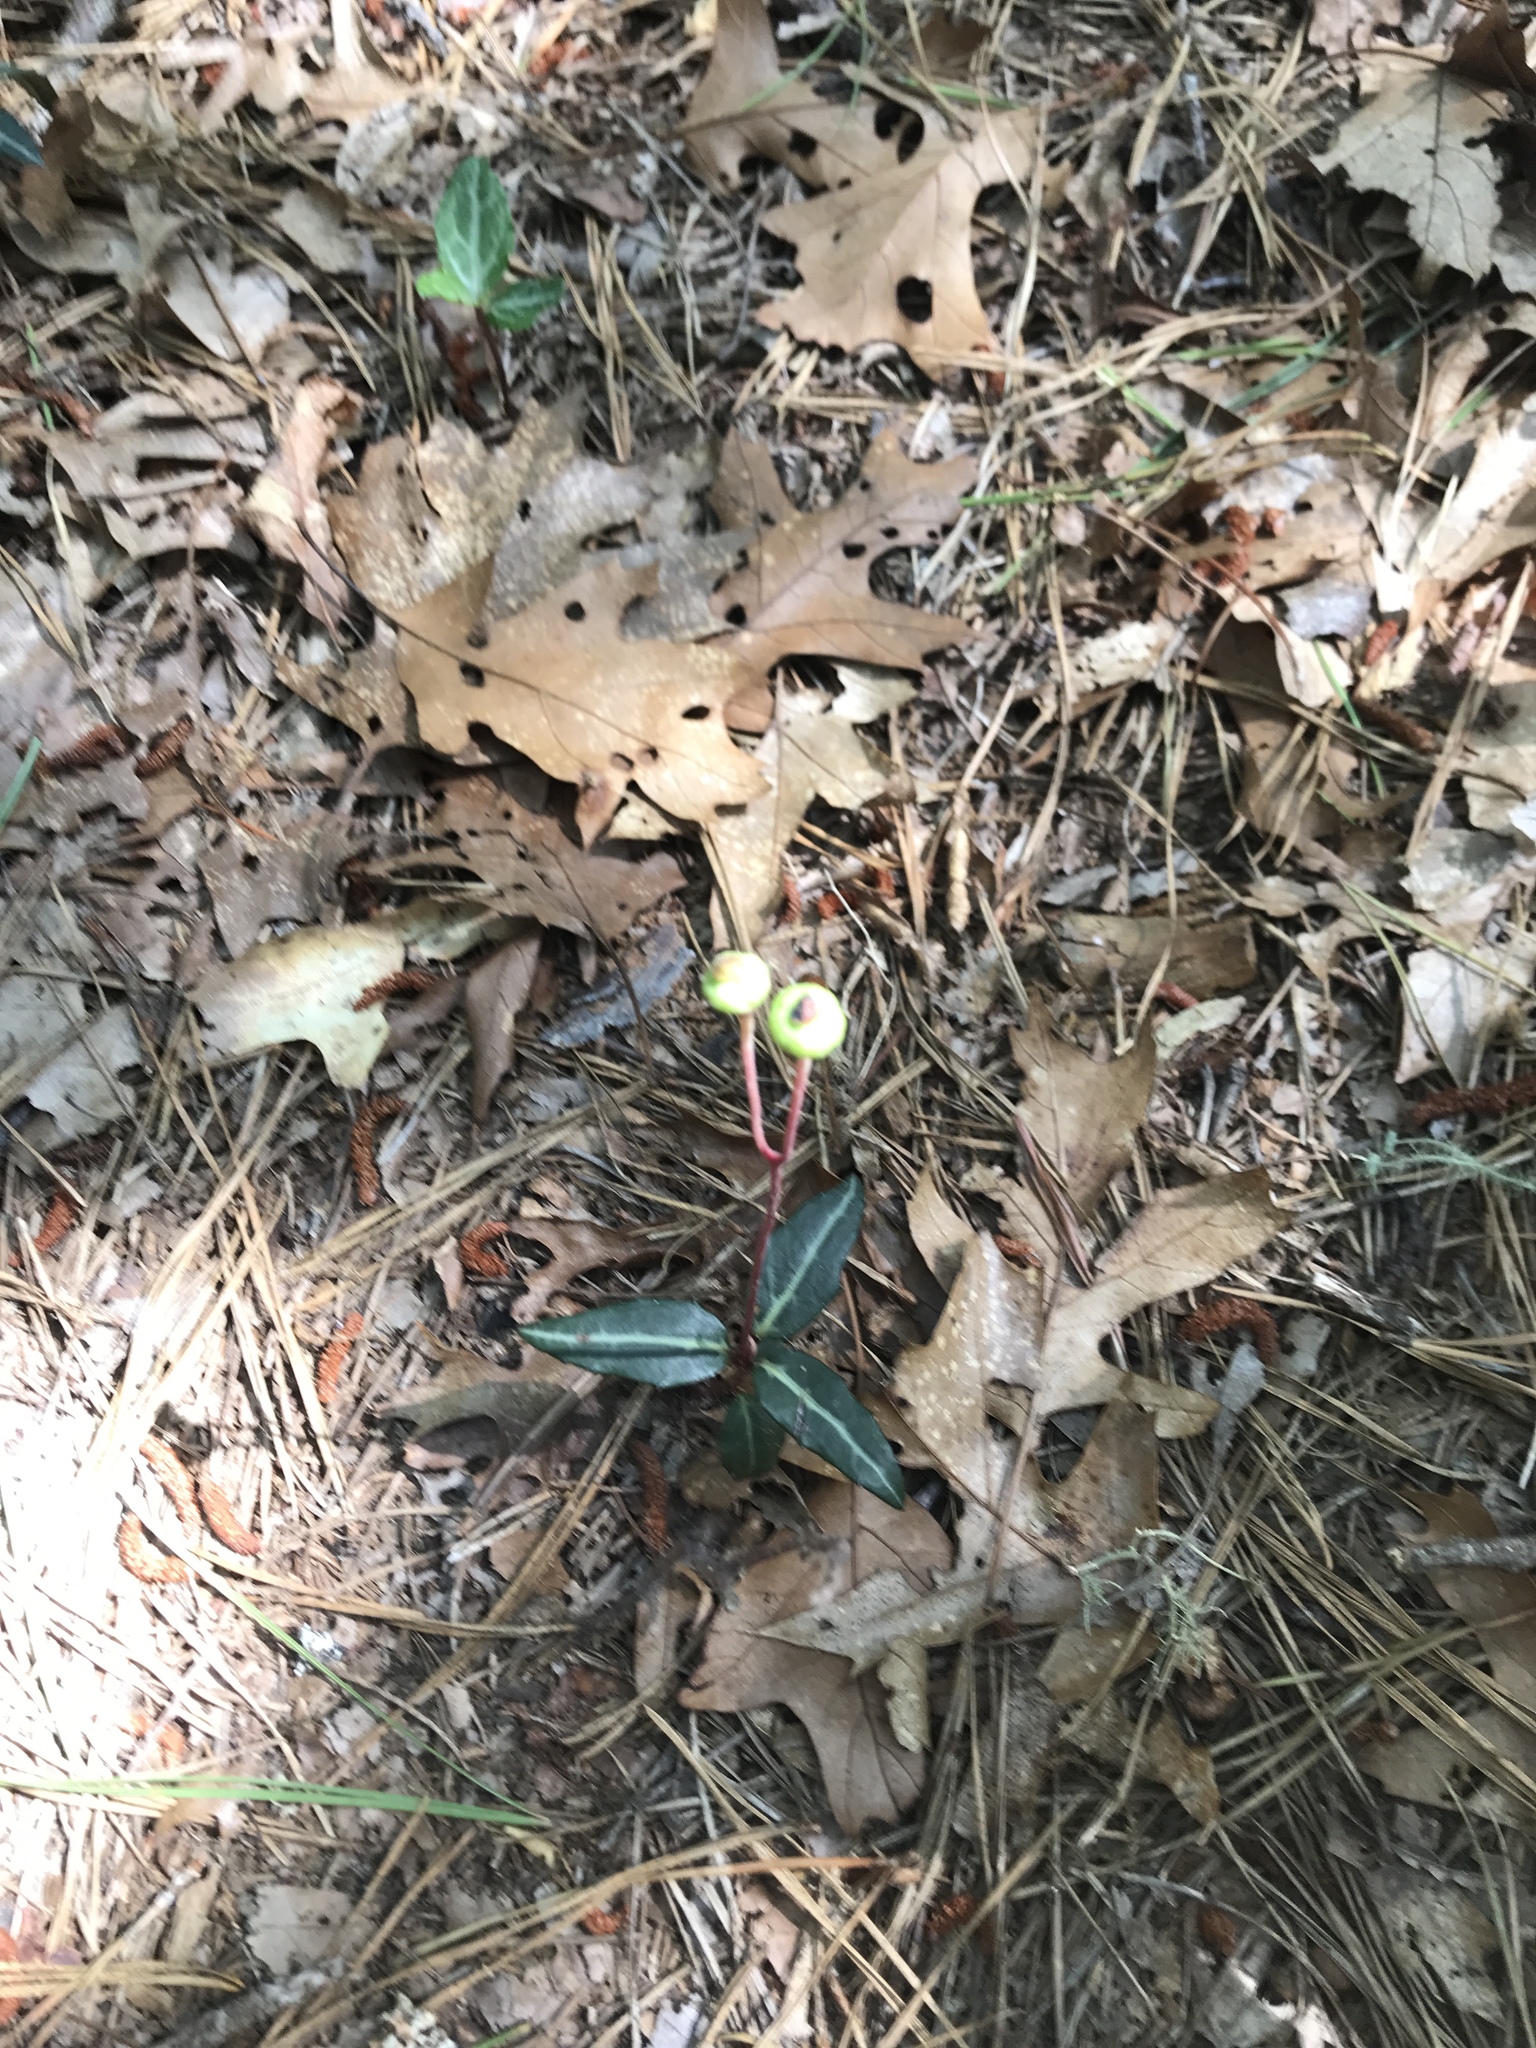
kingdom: Plantae
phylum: Tracheophyta
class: Magnoliopsida
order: Ericales
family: Ericaceae
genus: Chimaphila
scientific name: Chimaphila maculata
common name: Spotted pipsissewa
